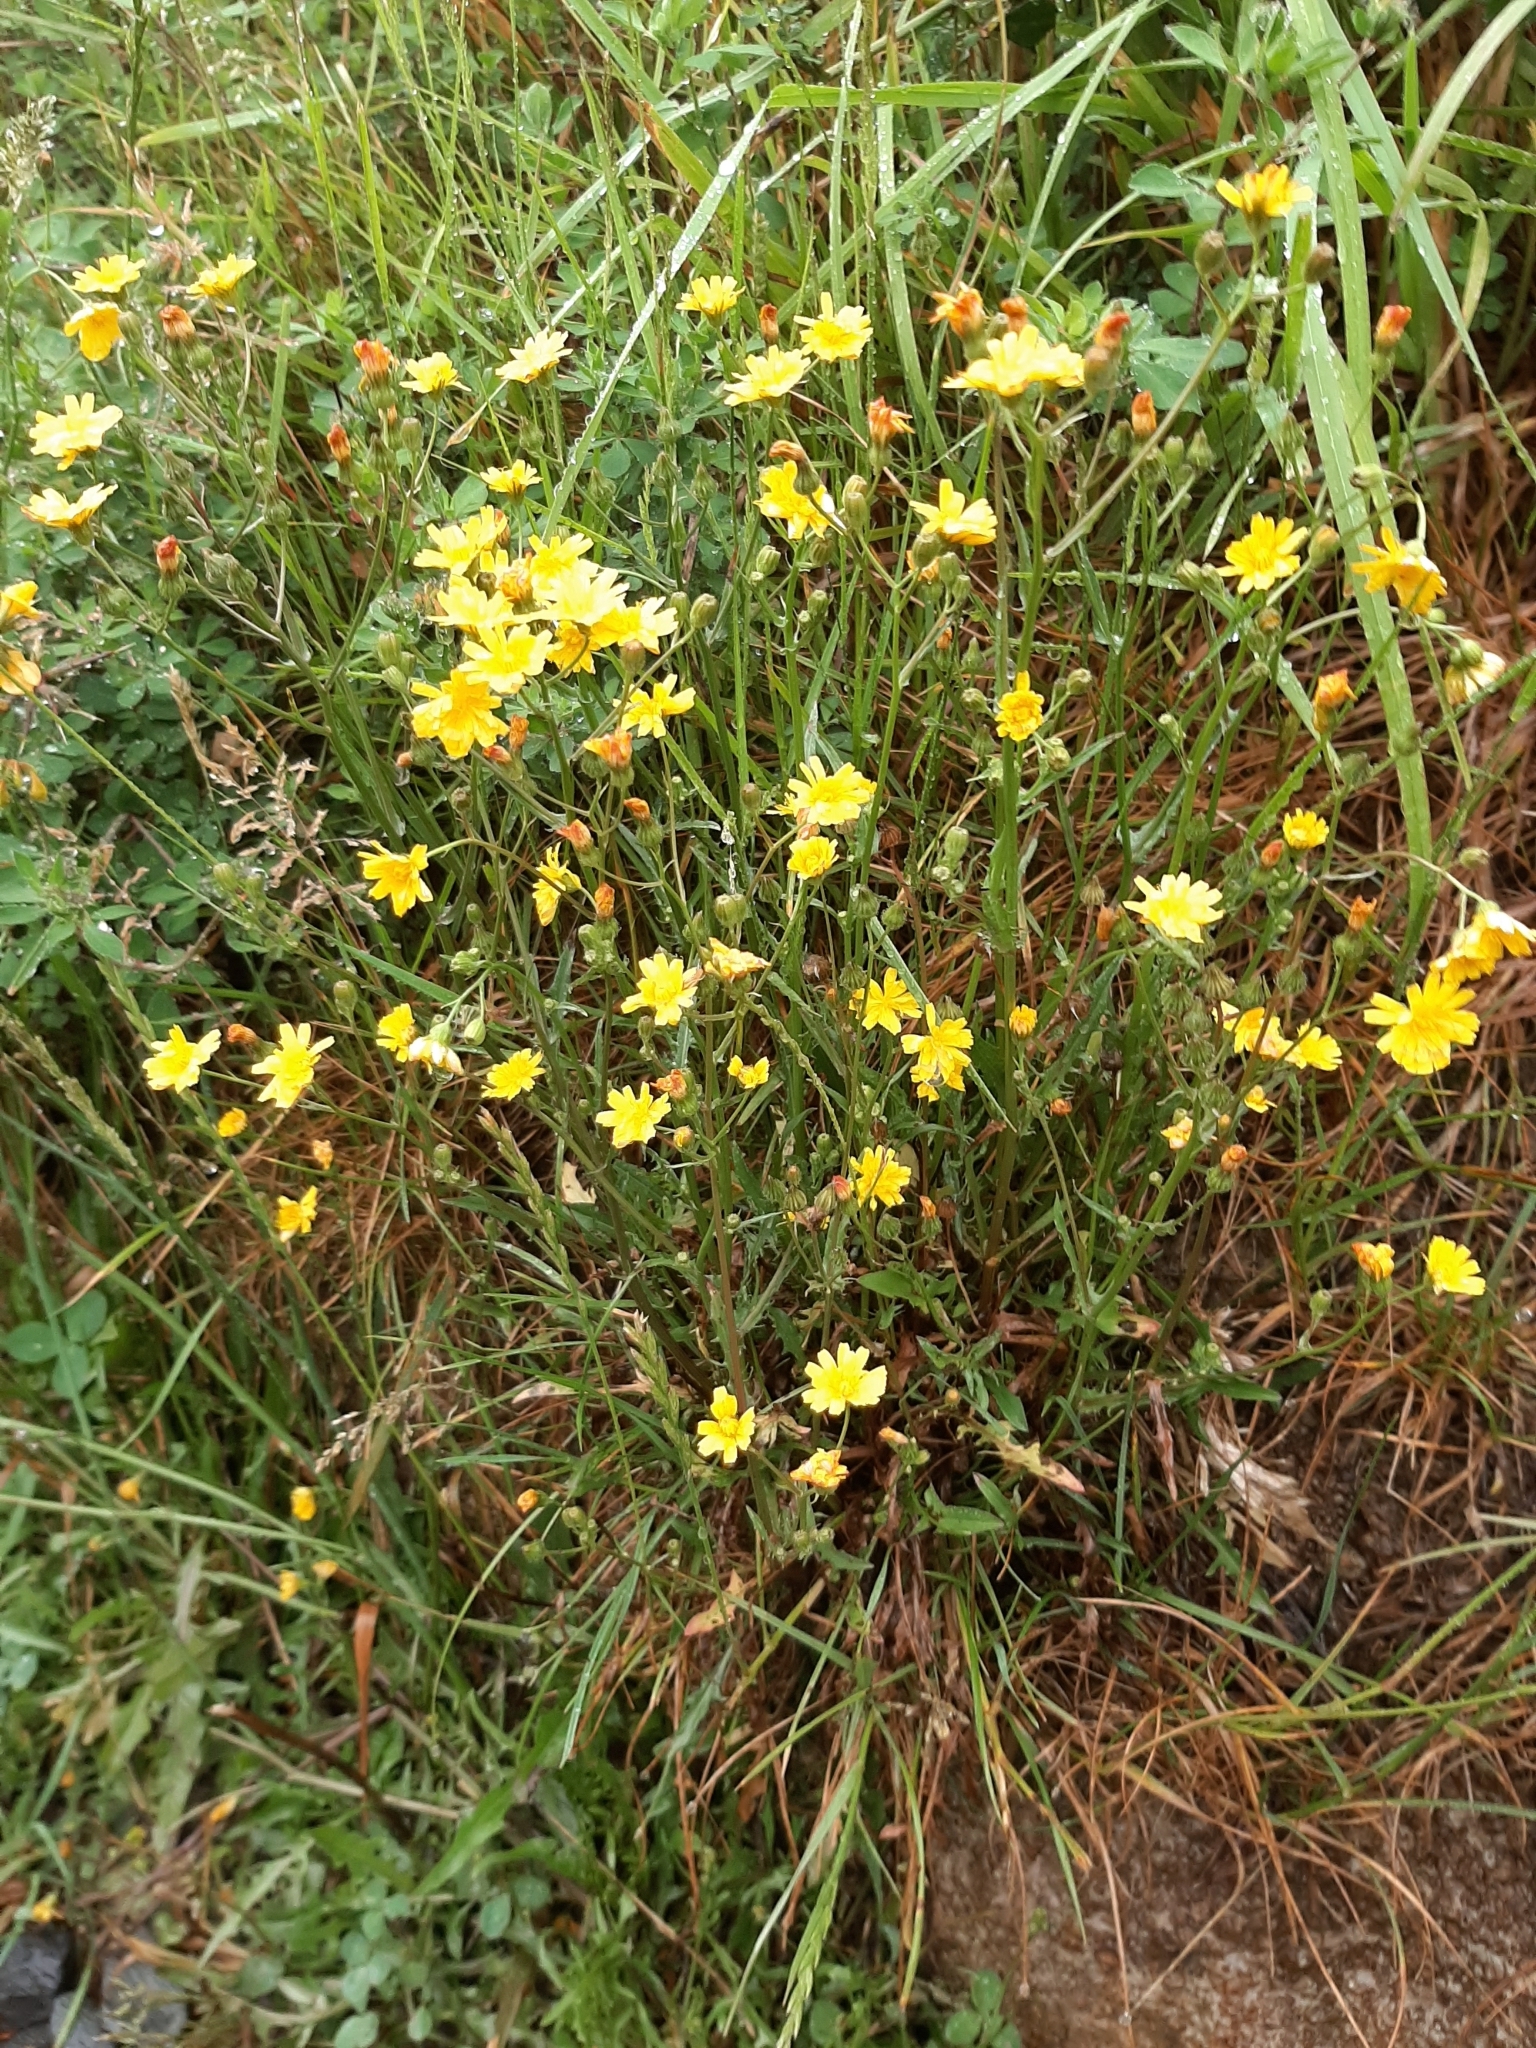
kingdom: Plantae
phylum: Tracheophyta
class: Magnoliopsida
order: Asterales
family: Asteraceae
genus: Crepis
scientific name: Crepis capillaris
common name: Smooth hawksbeard
